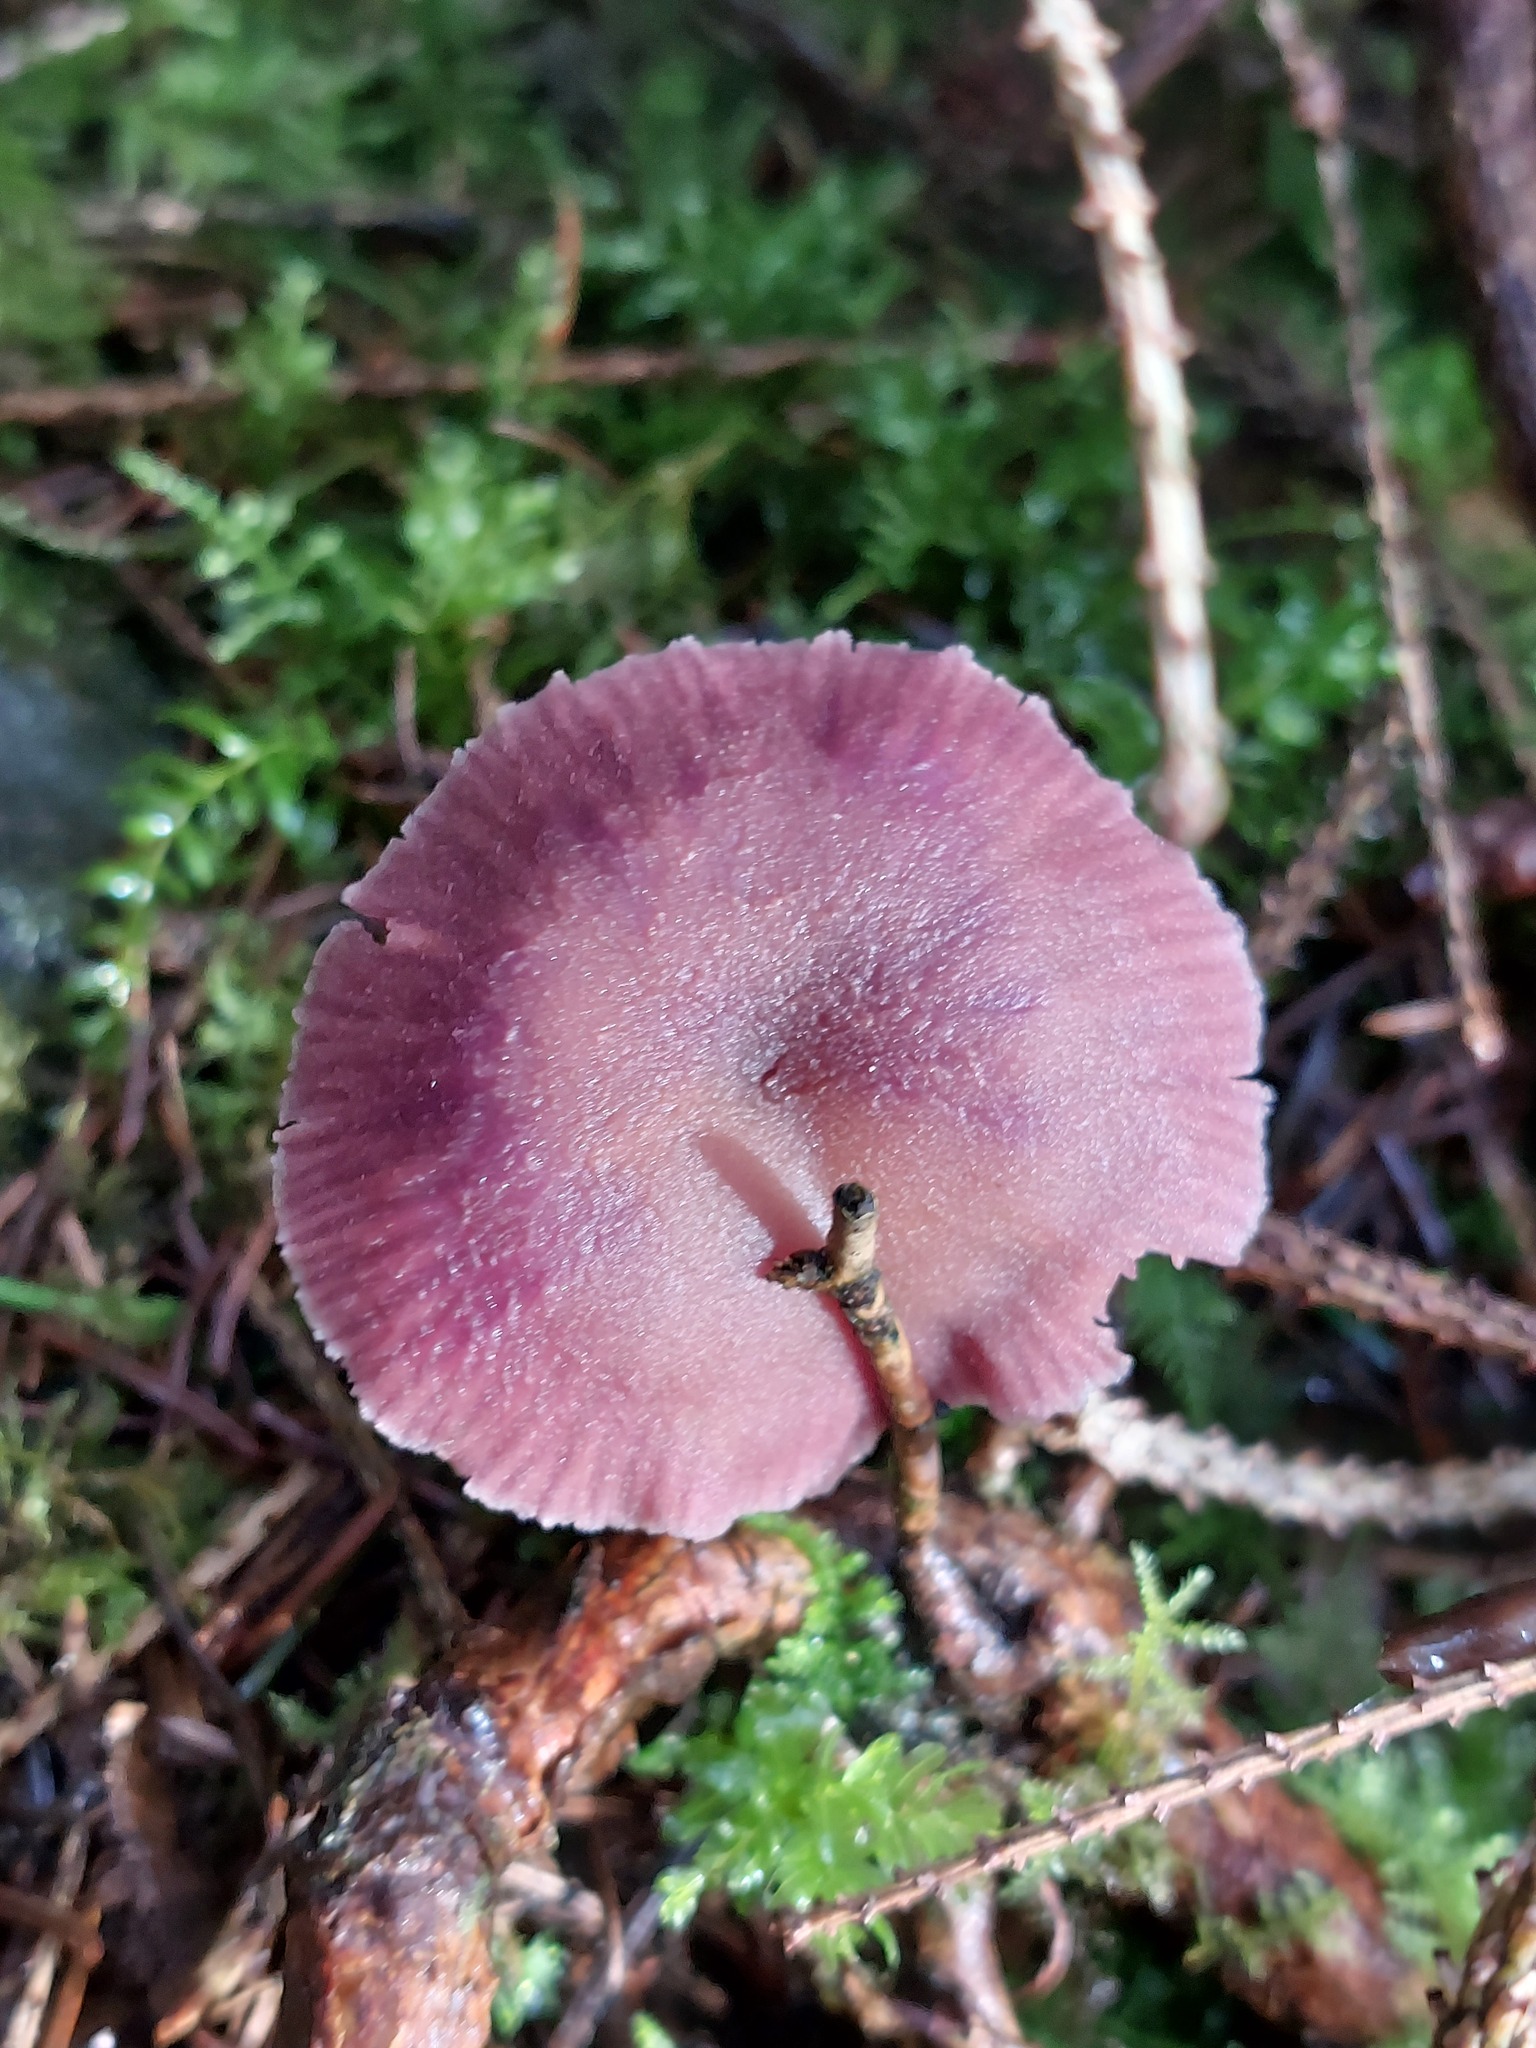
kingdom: Fungi
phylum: Basidiomycota
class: Agaricomycetes
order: Agaricales
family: Hydnangiaceae
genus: Laccaria
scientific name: Laccaria amethystina
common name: Amethyst deceiver
